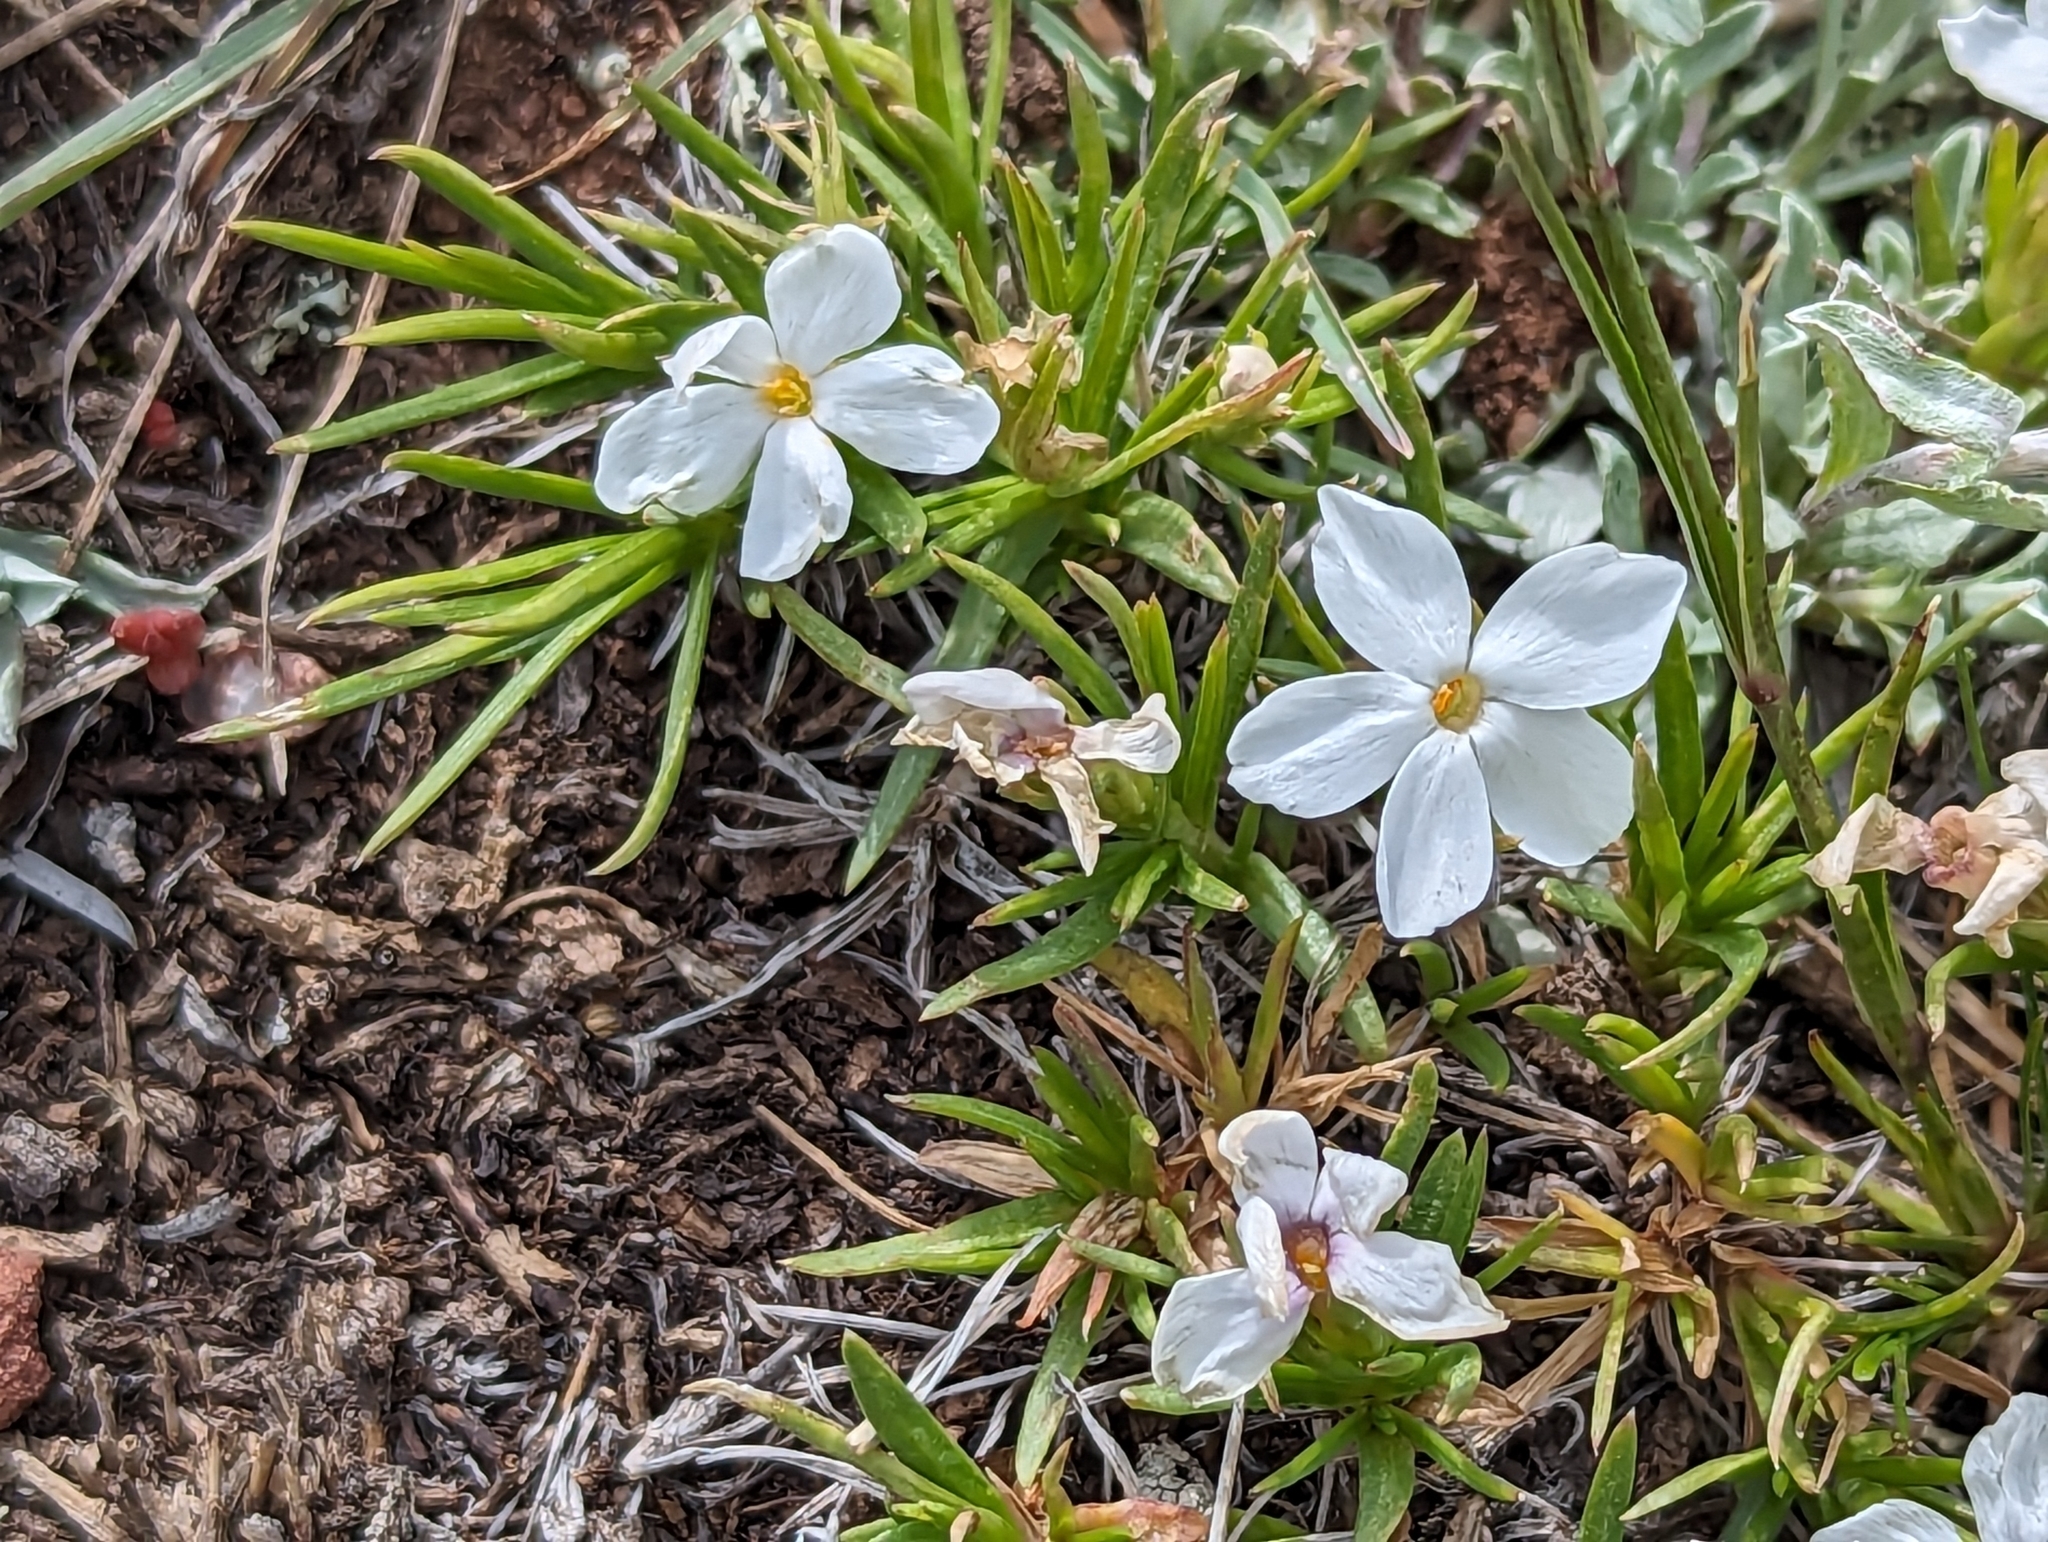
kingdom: Plantae
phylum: Tracheophyta
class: Magnoliopsida
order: Ericales
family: Polemoniaceae
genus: Phlox
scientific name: Phlox multiflora
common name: Rocky mountain phlox
